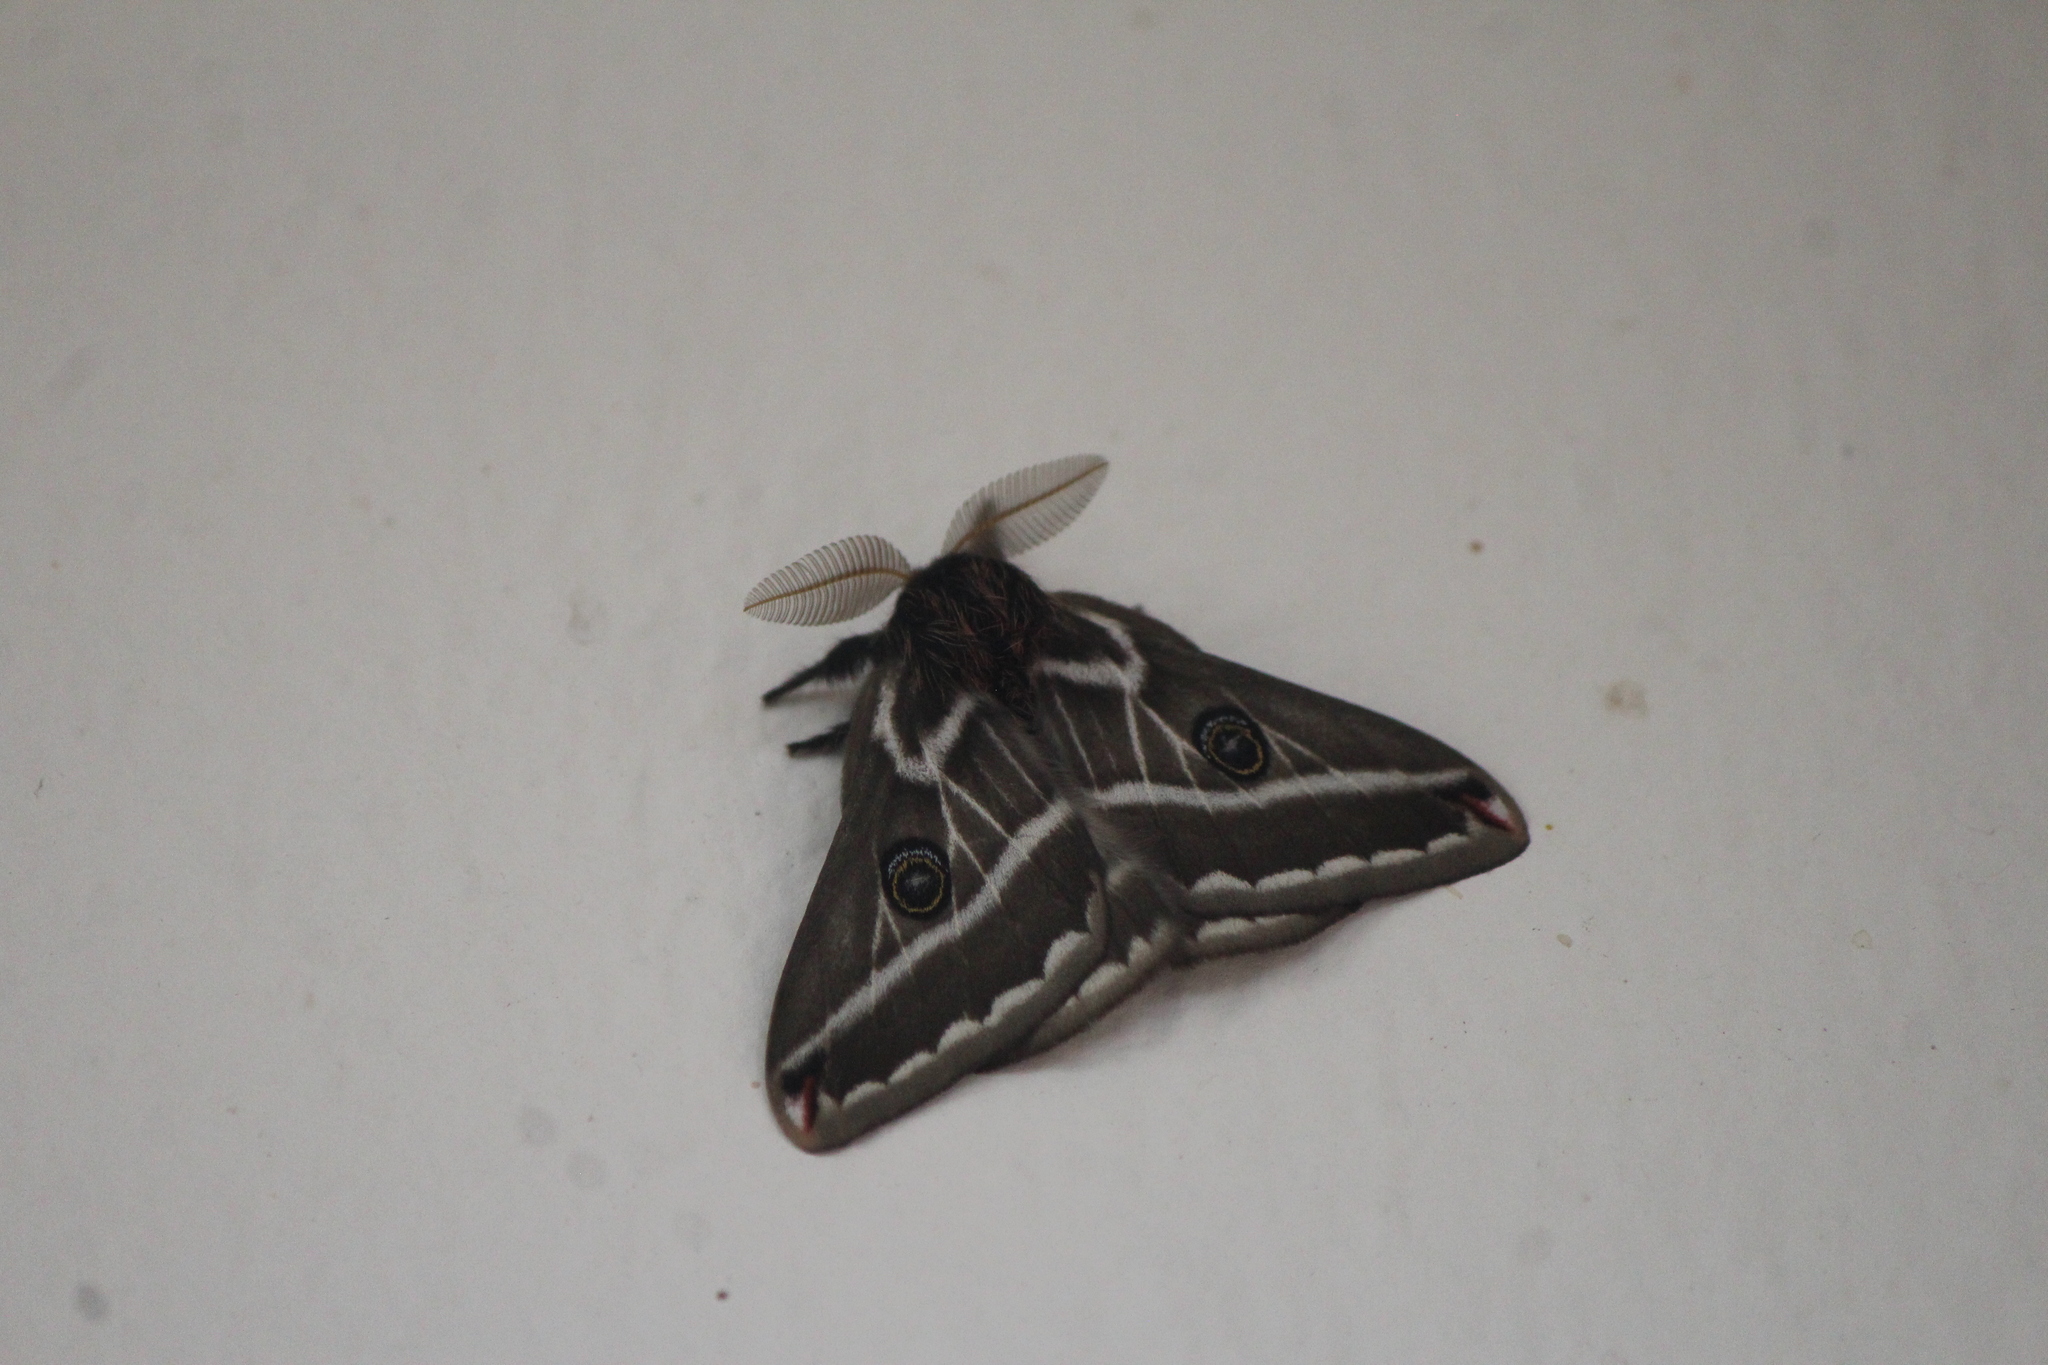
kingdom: Animalia
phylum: Arthropoda
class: Insecta
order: Lepidoptera
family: Saturniidae
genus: Agapema
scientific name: Agapema
